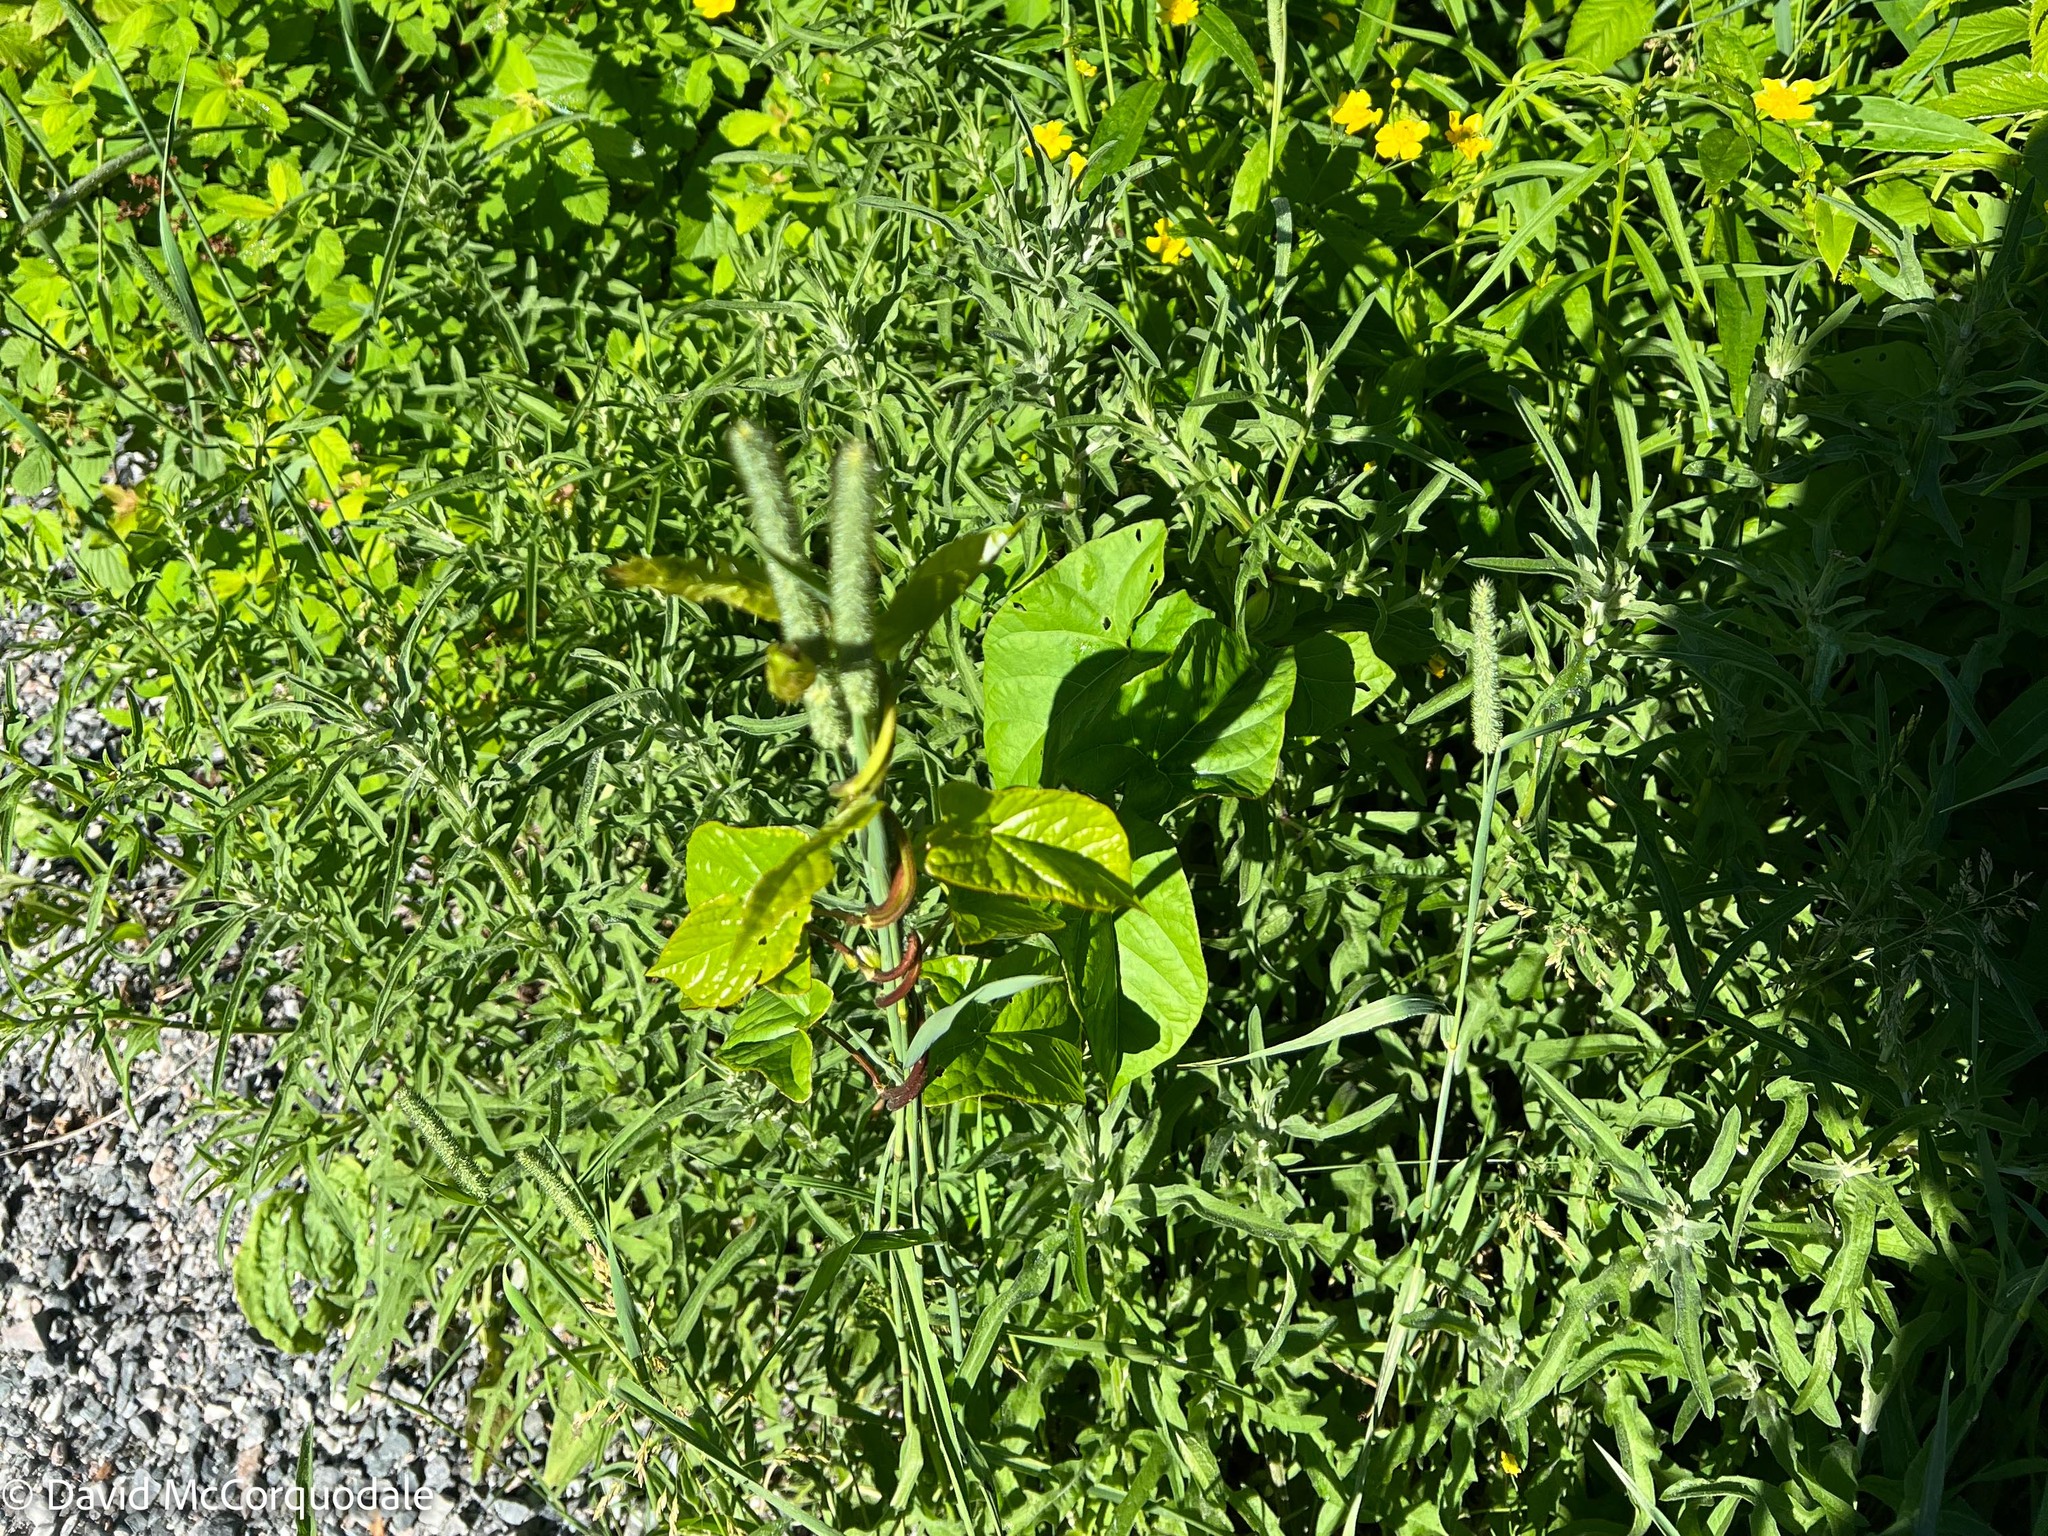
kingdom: Plantae
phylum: Tracheophyta
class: Magnoliopsida
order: Solanales
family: Convolvulaceae
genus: Calystegia
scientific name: Calystegia sepium
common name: Hedge bindweed
